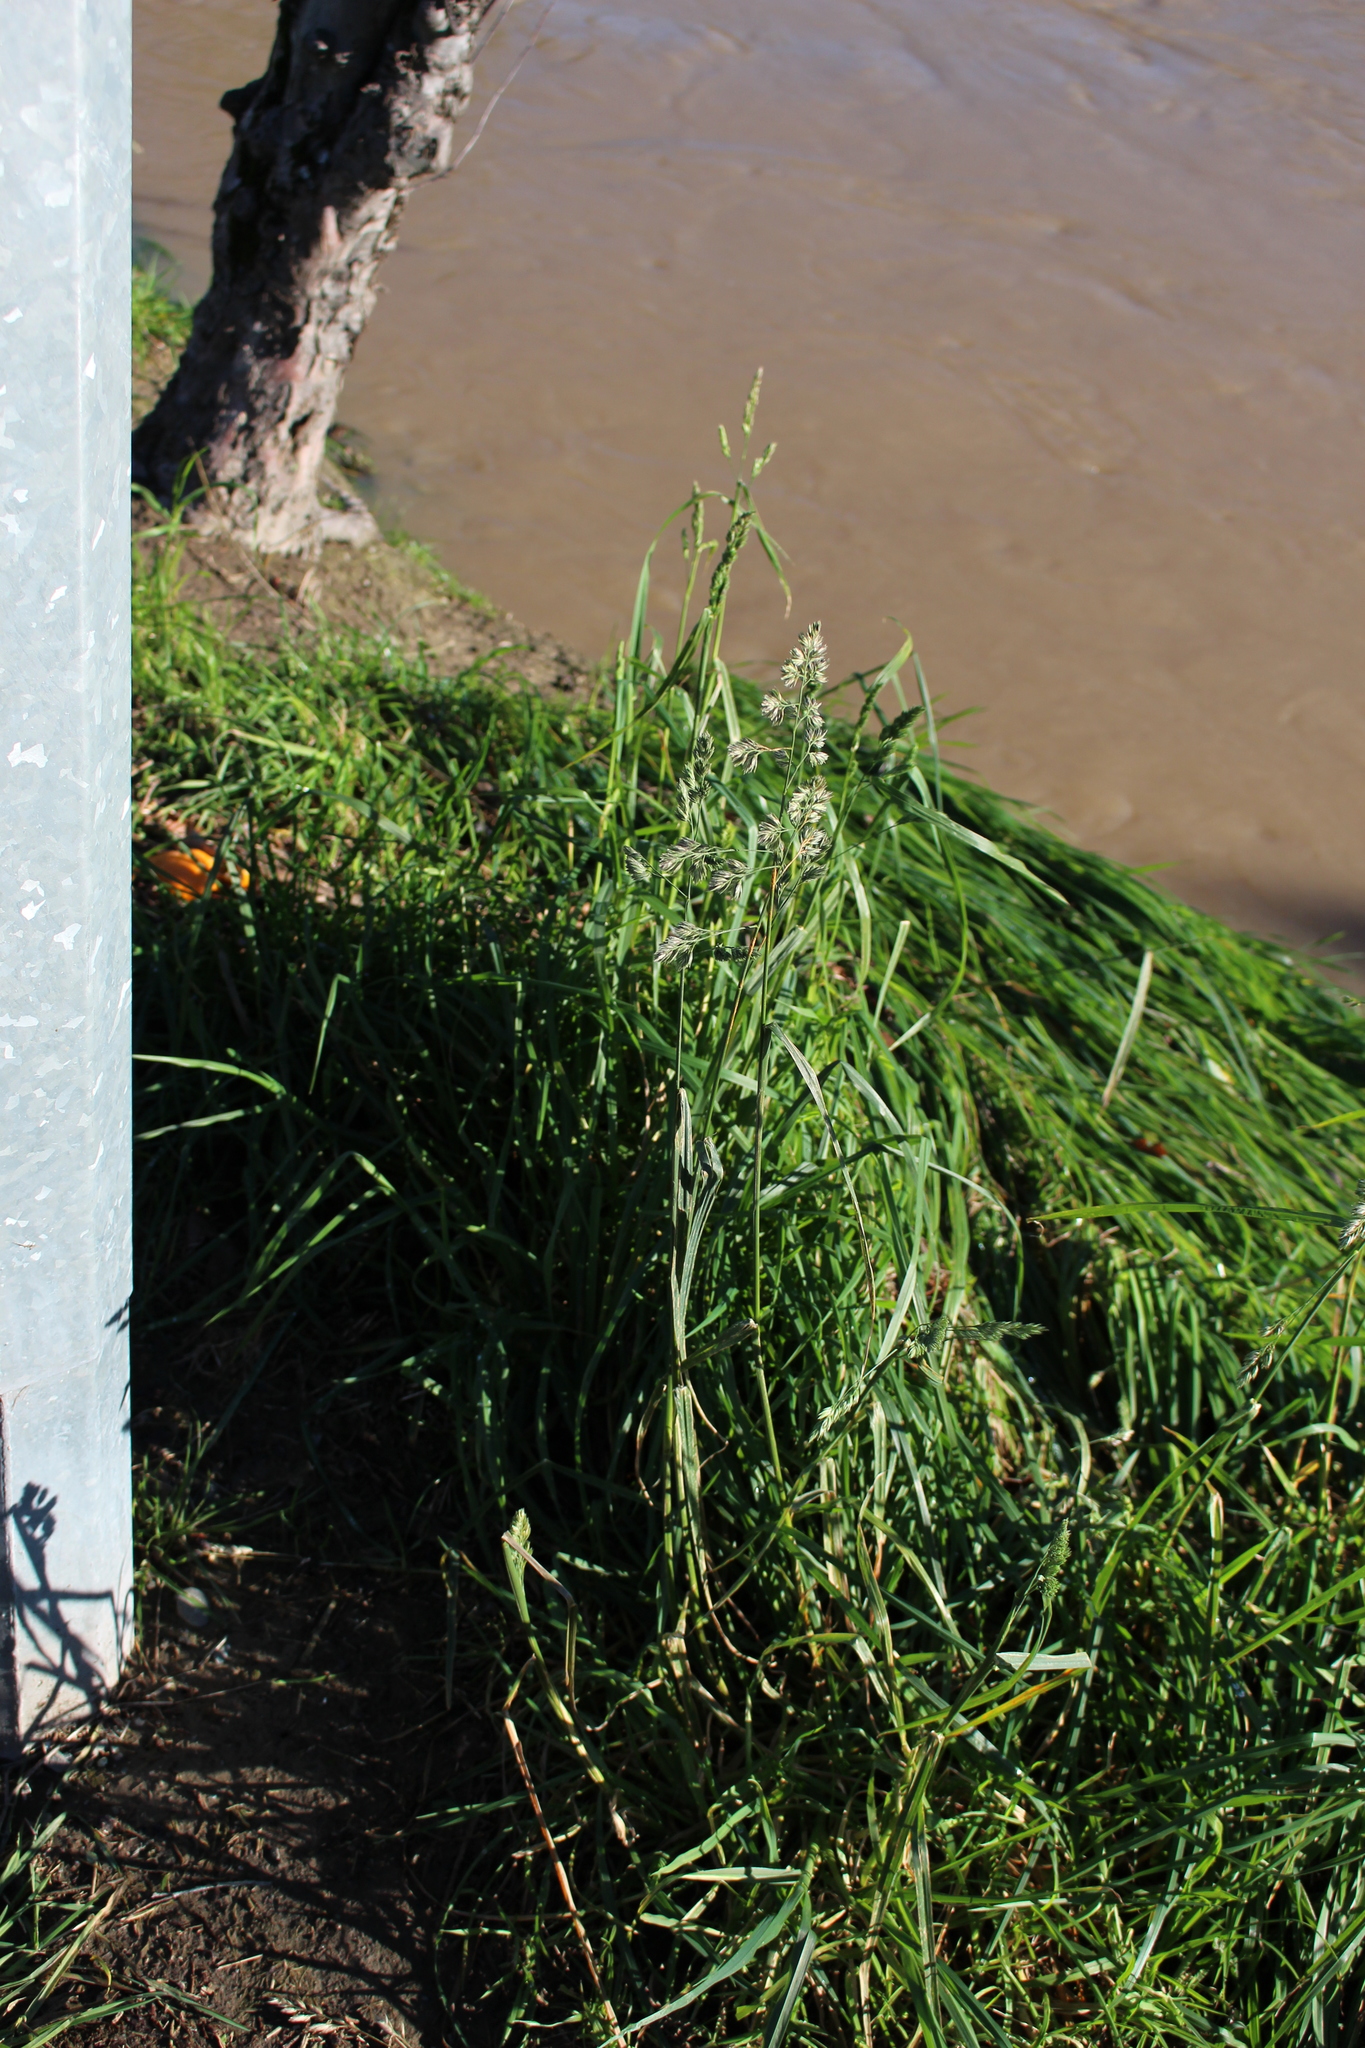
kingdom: Plantae
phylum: Tracheophyta
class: Liliopsida
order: Poales
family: Poaceae
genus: Dactylis
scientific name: Dactylis glomerata
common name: Orchardgrass
